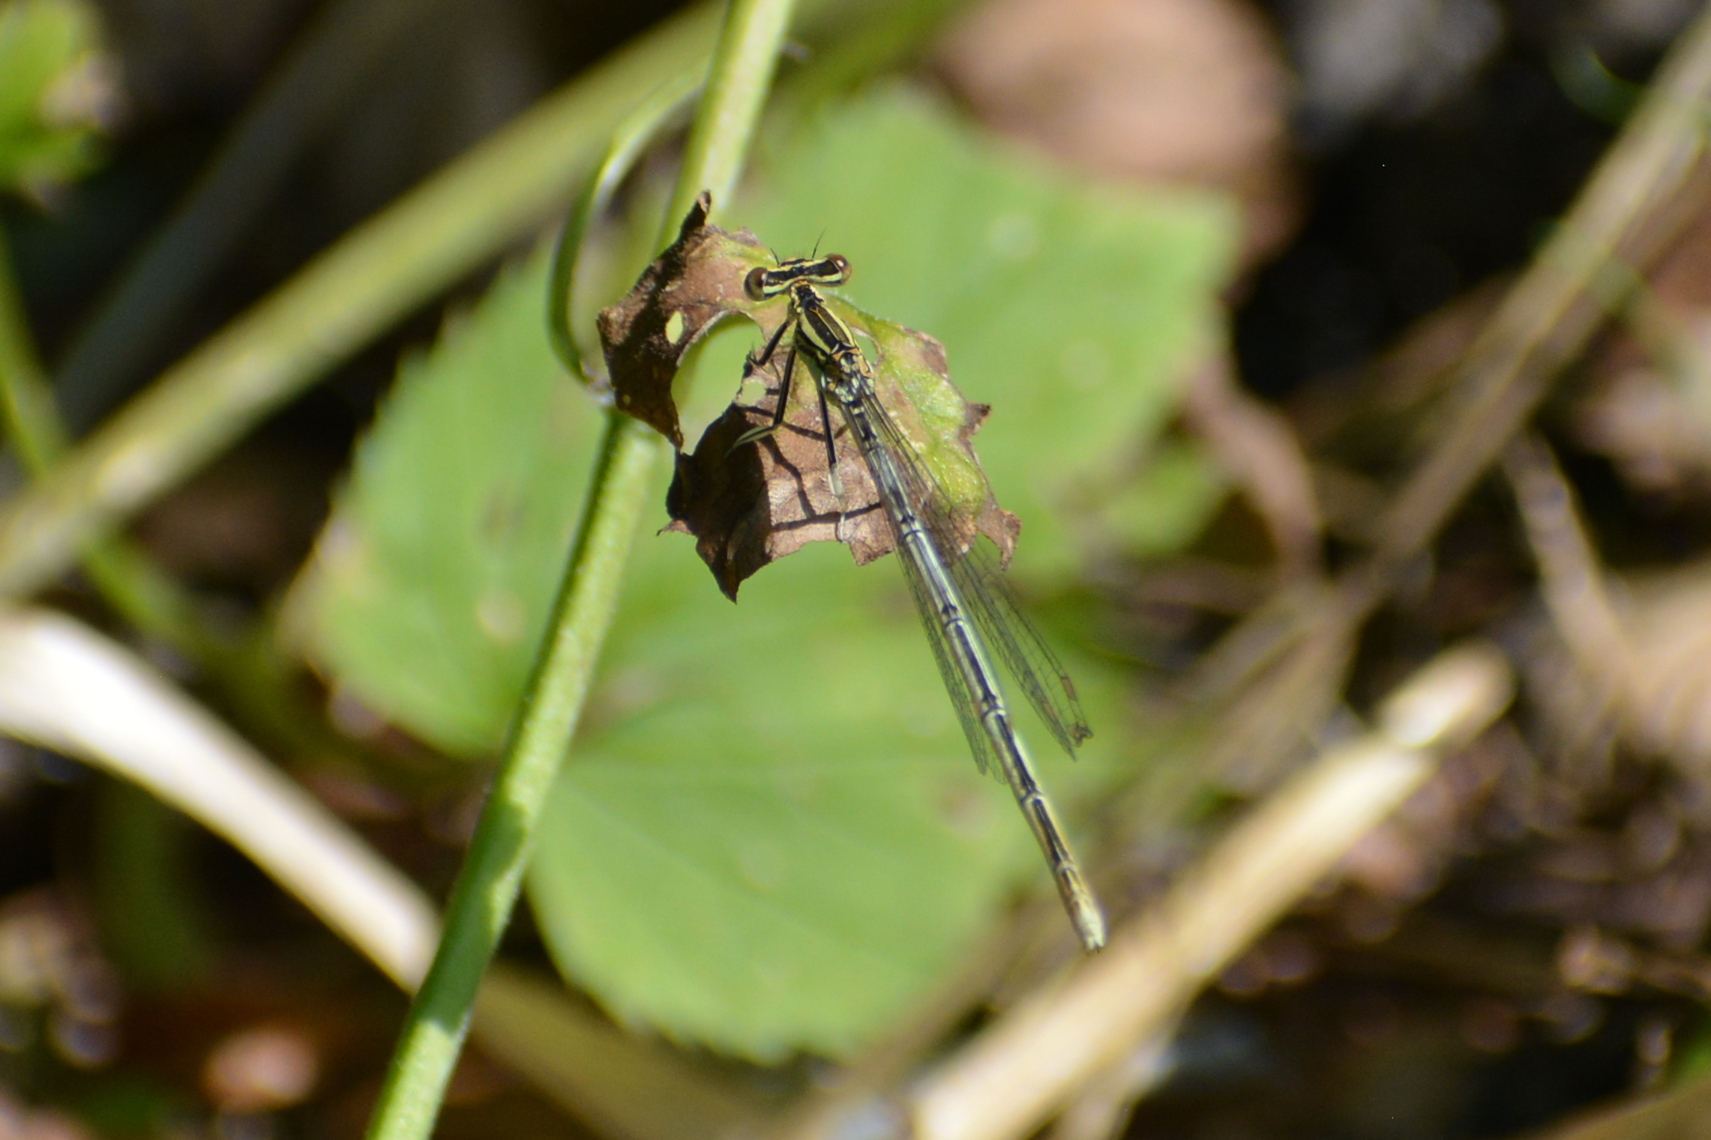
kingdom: Animalia
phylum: Arthropoda
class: Insecta
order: Odonata
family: Platycnemididae
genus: Platycnemis
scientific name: Platycnemis pennipes
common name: White-legged damselfly
